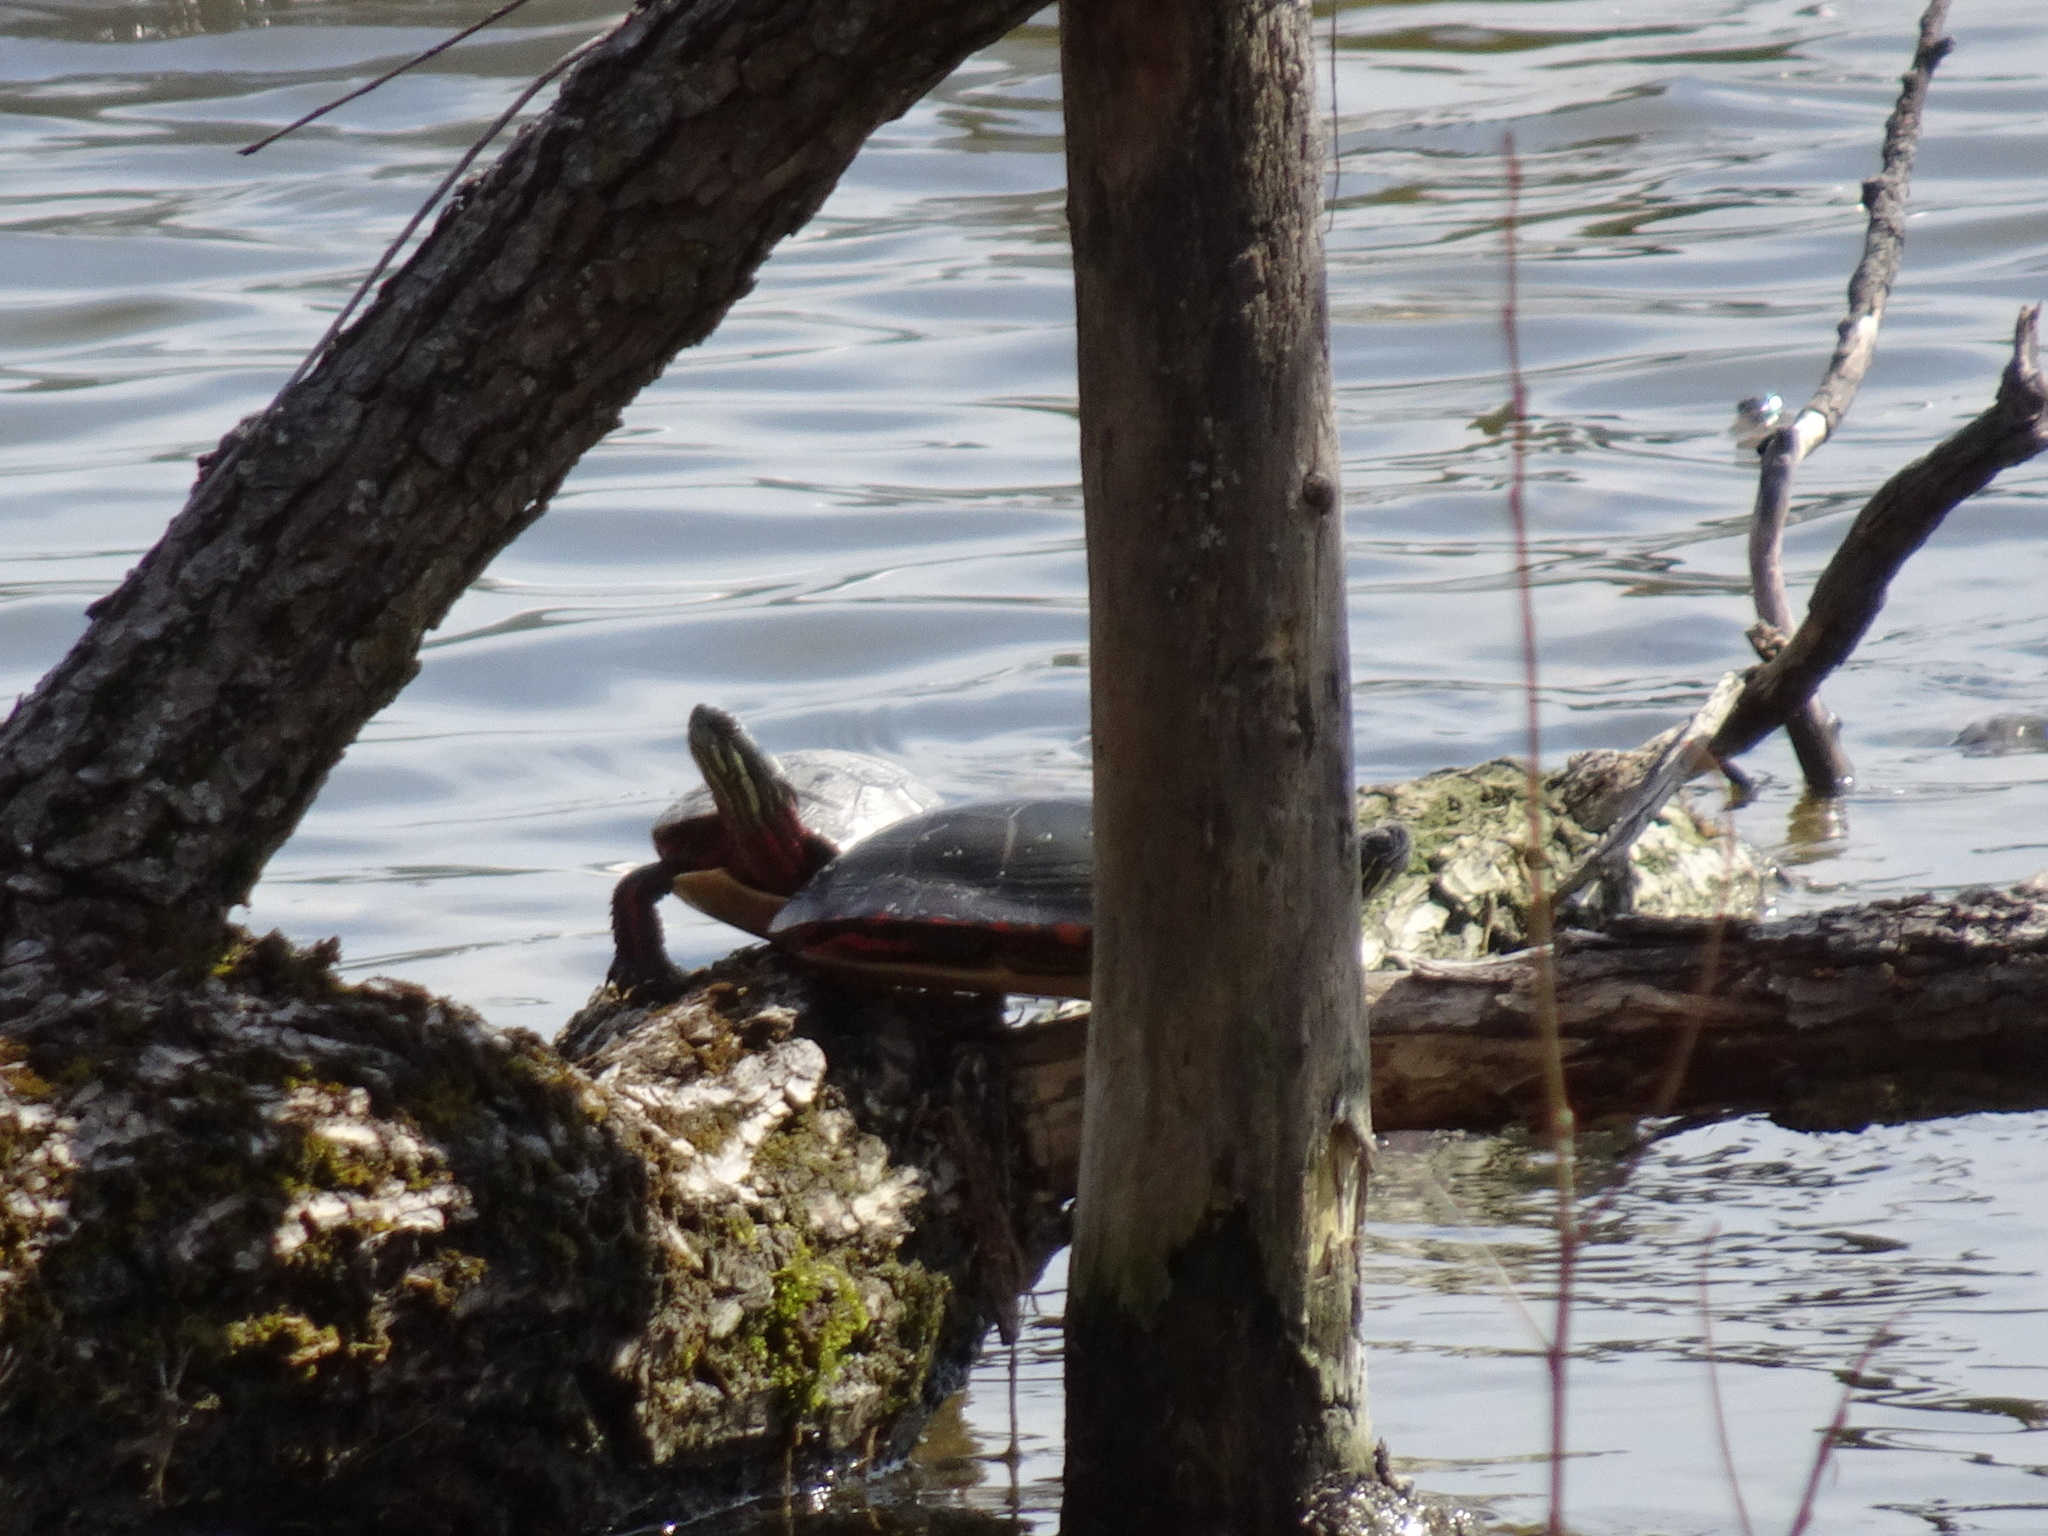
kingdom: Animalia
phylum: Chordata
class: Testudines
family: Emydidae
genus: Chrysemys
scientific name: Chrysemys picta
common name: Painted turtle
